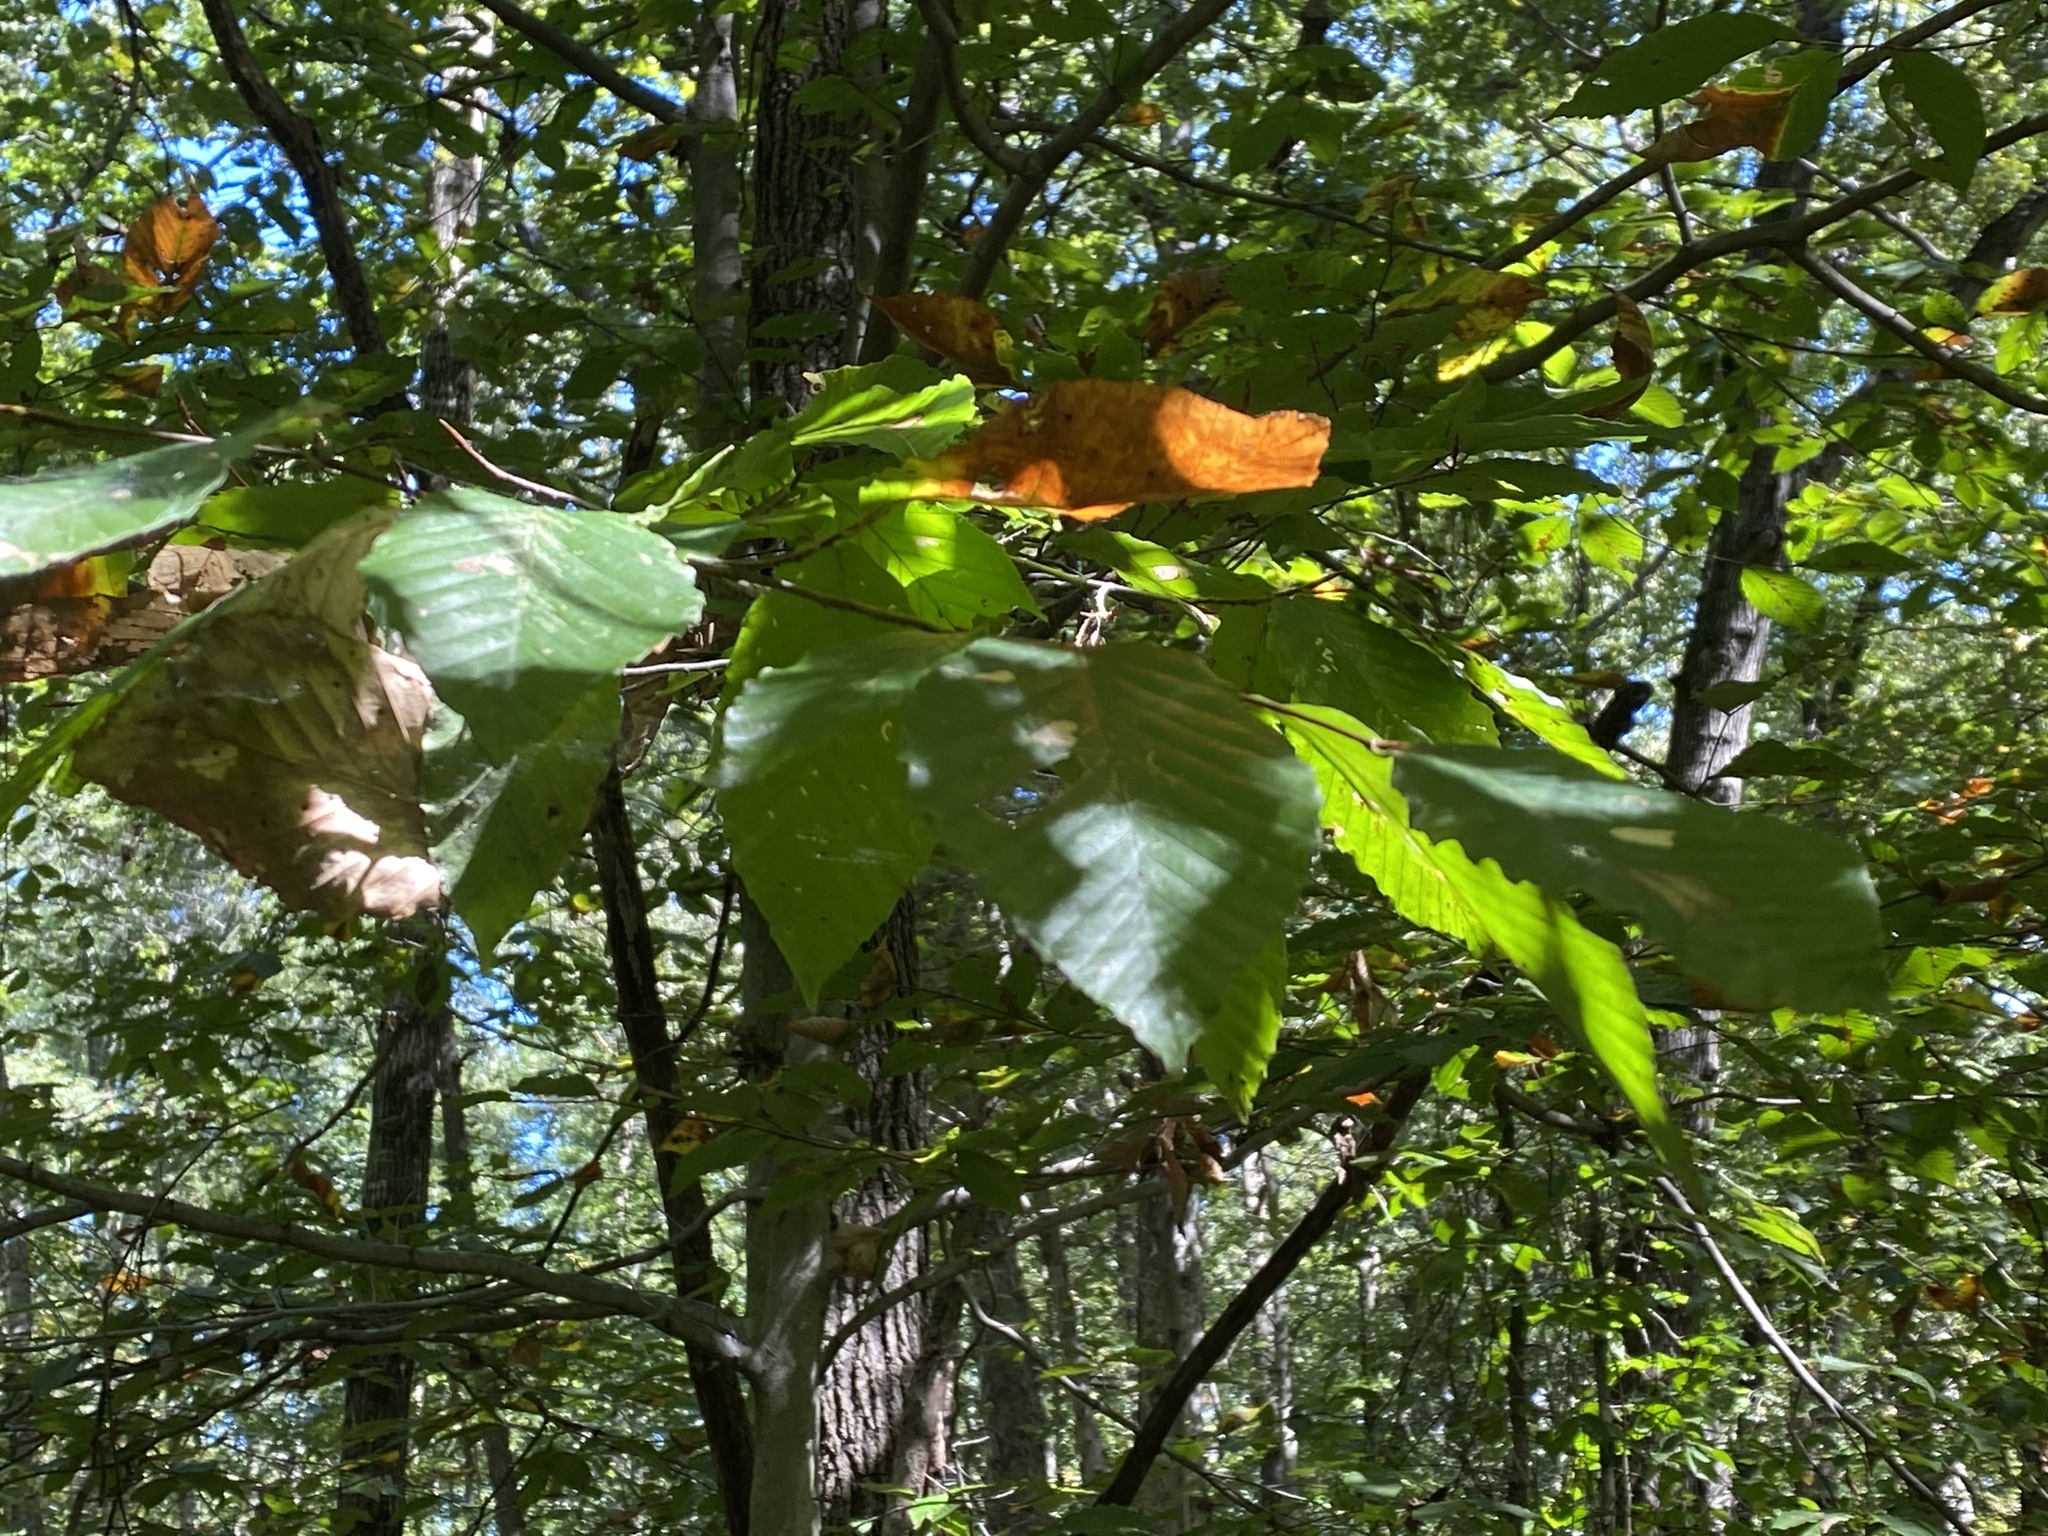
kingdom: Plantae
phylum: Tracheophyta
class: Magnoliopsida
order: Fagales
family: Fagaceae
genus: Fagus
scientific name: Fagus grandifolia
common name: American beech
